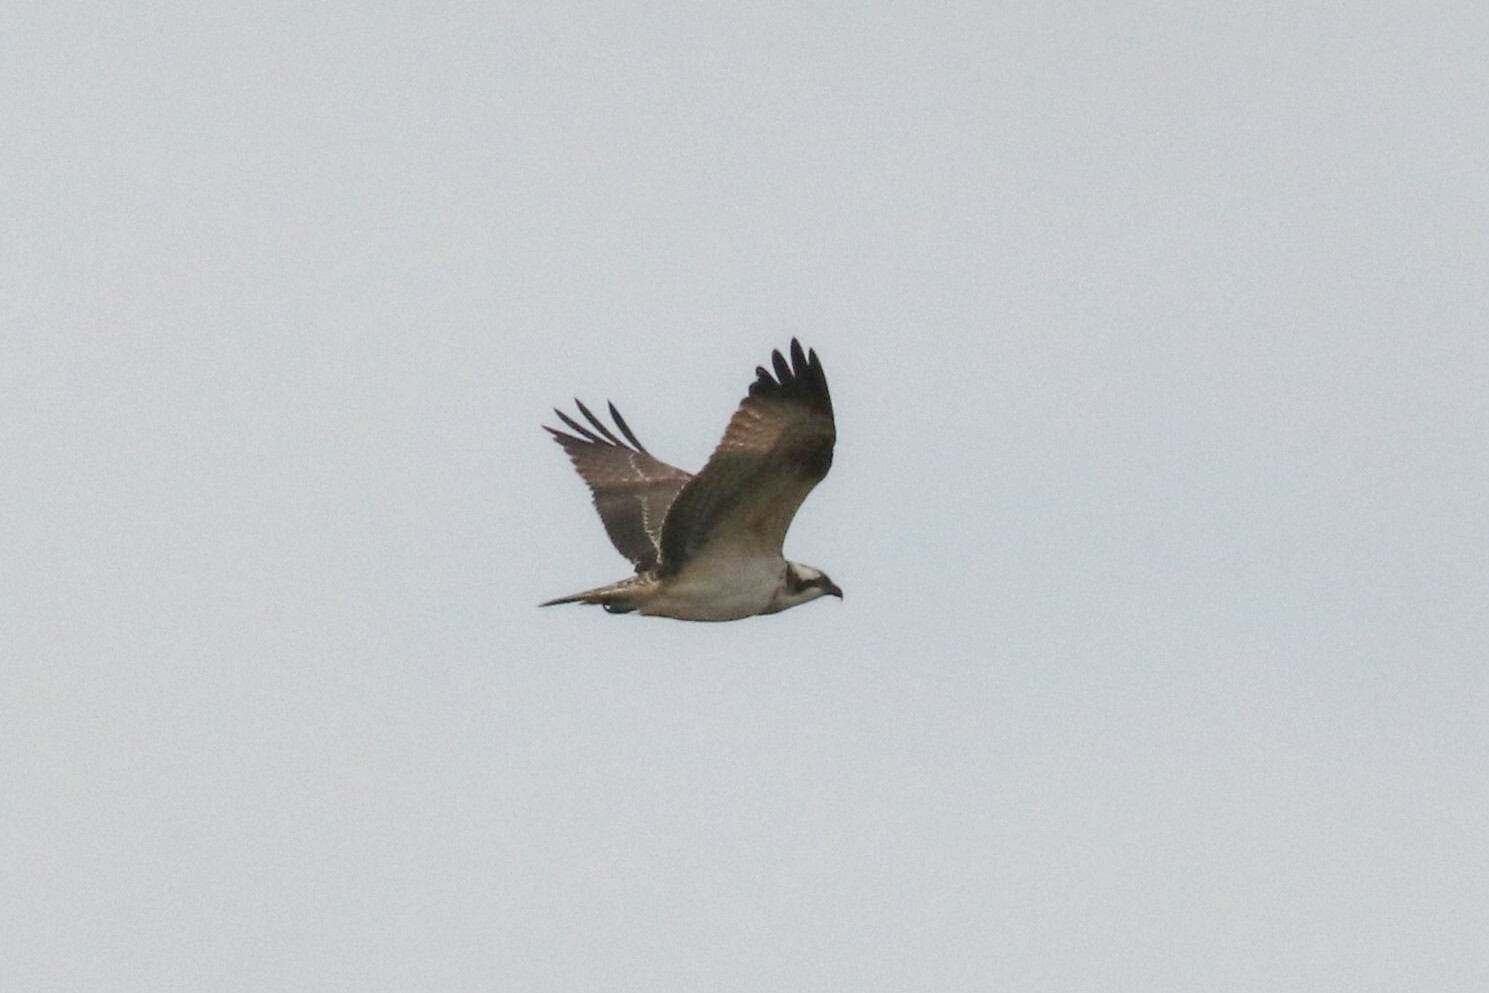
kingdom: Animalia
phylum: Chordata
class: Aves
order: Accipitriformes
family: Pandionidae
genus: Pandion
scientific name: Pandion haliaetus
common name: Osprey
